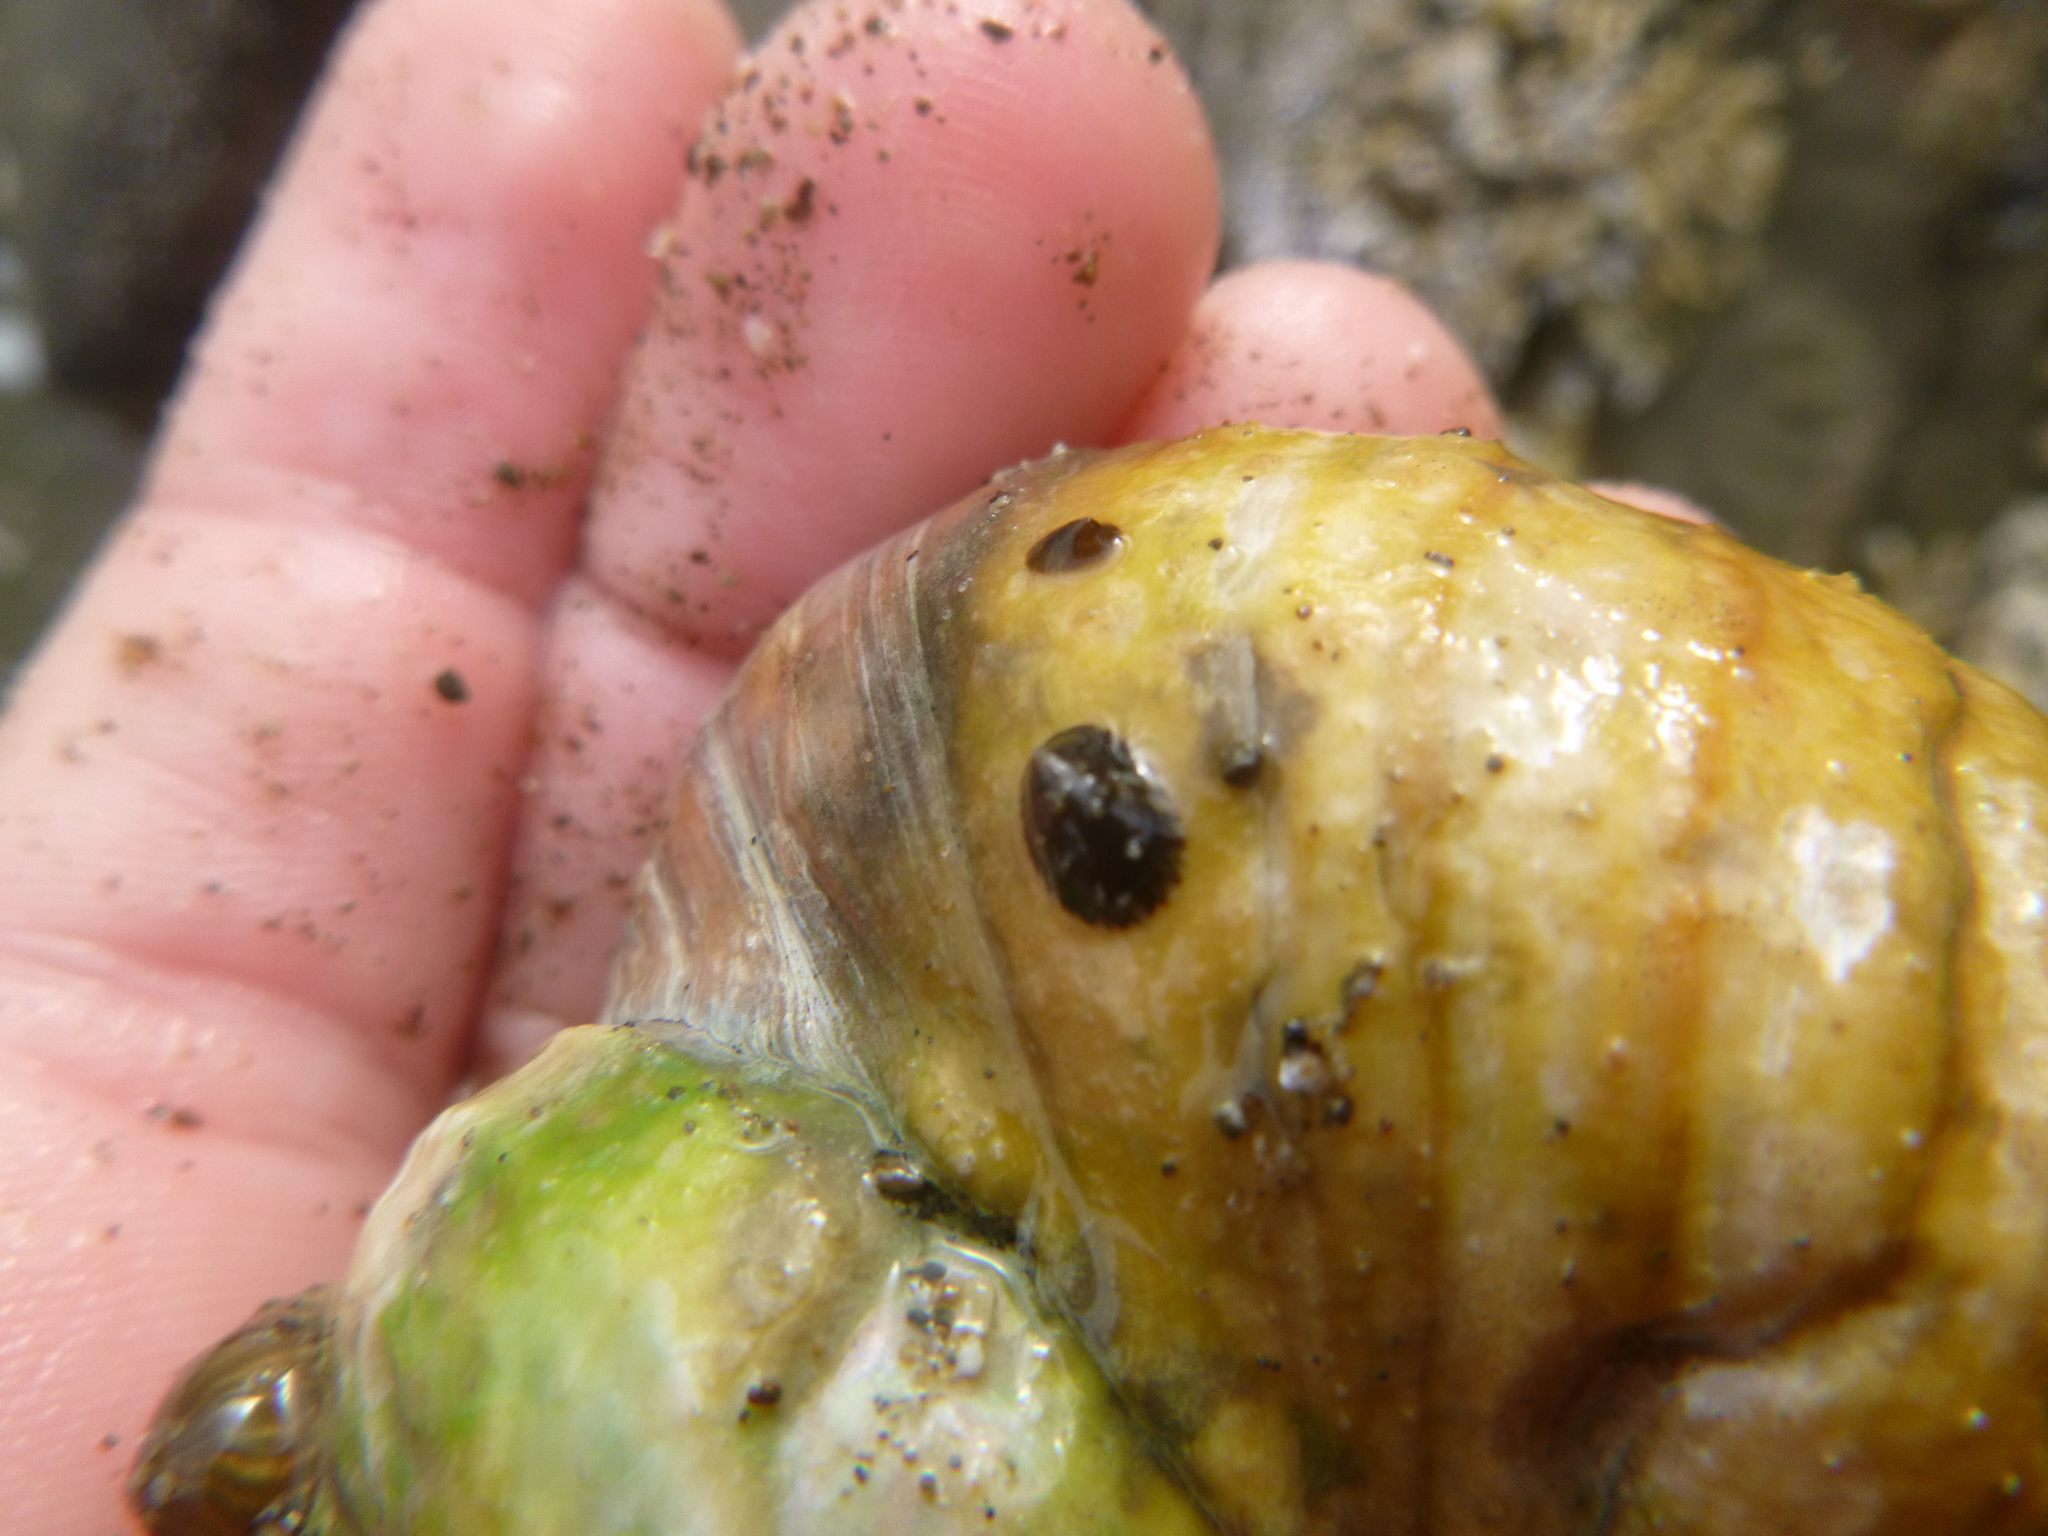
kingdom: Animalia
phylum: Mollusca
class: Gastropoda
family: Lottiidae
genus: Notoacmea
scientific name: Notoacmea
